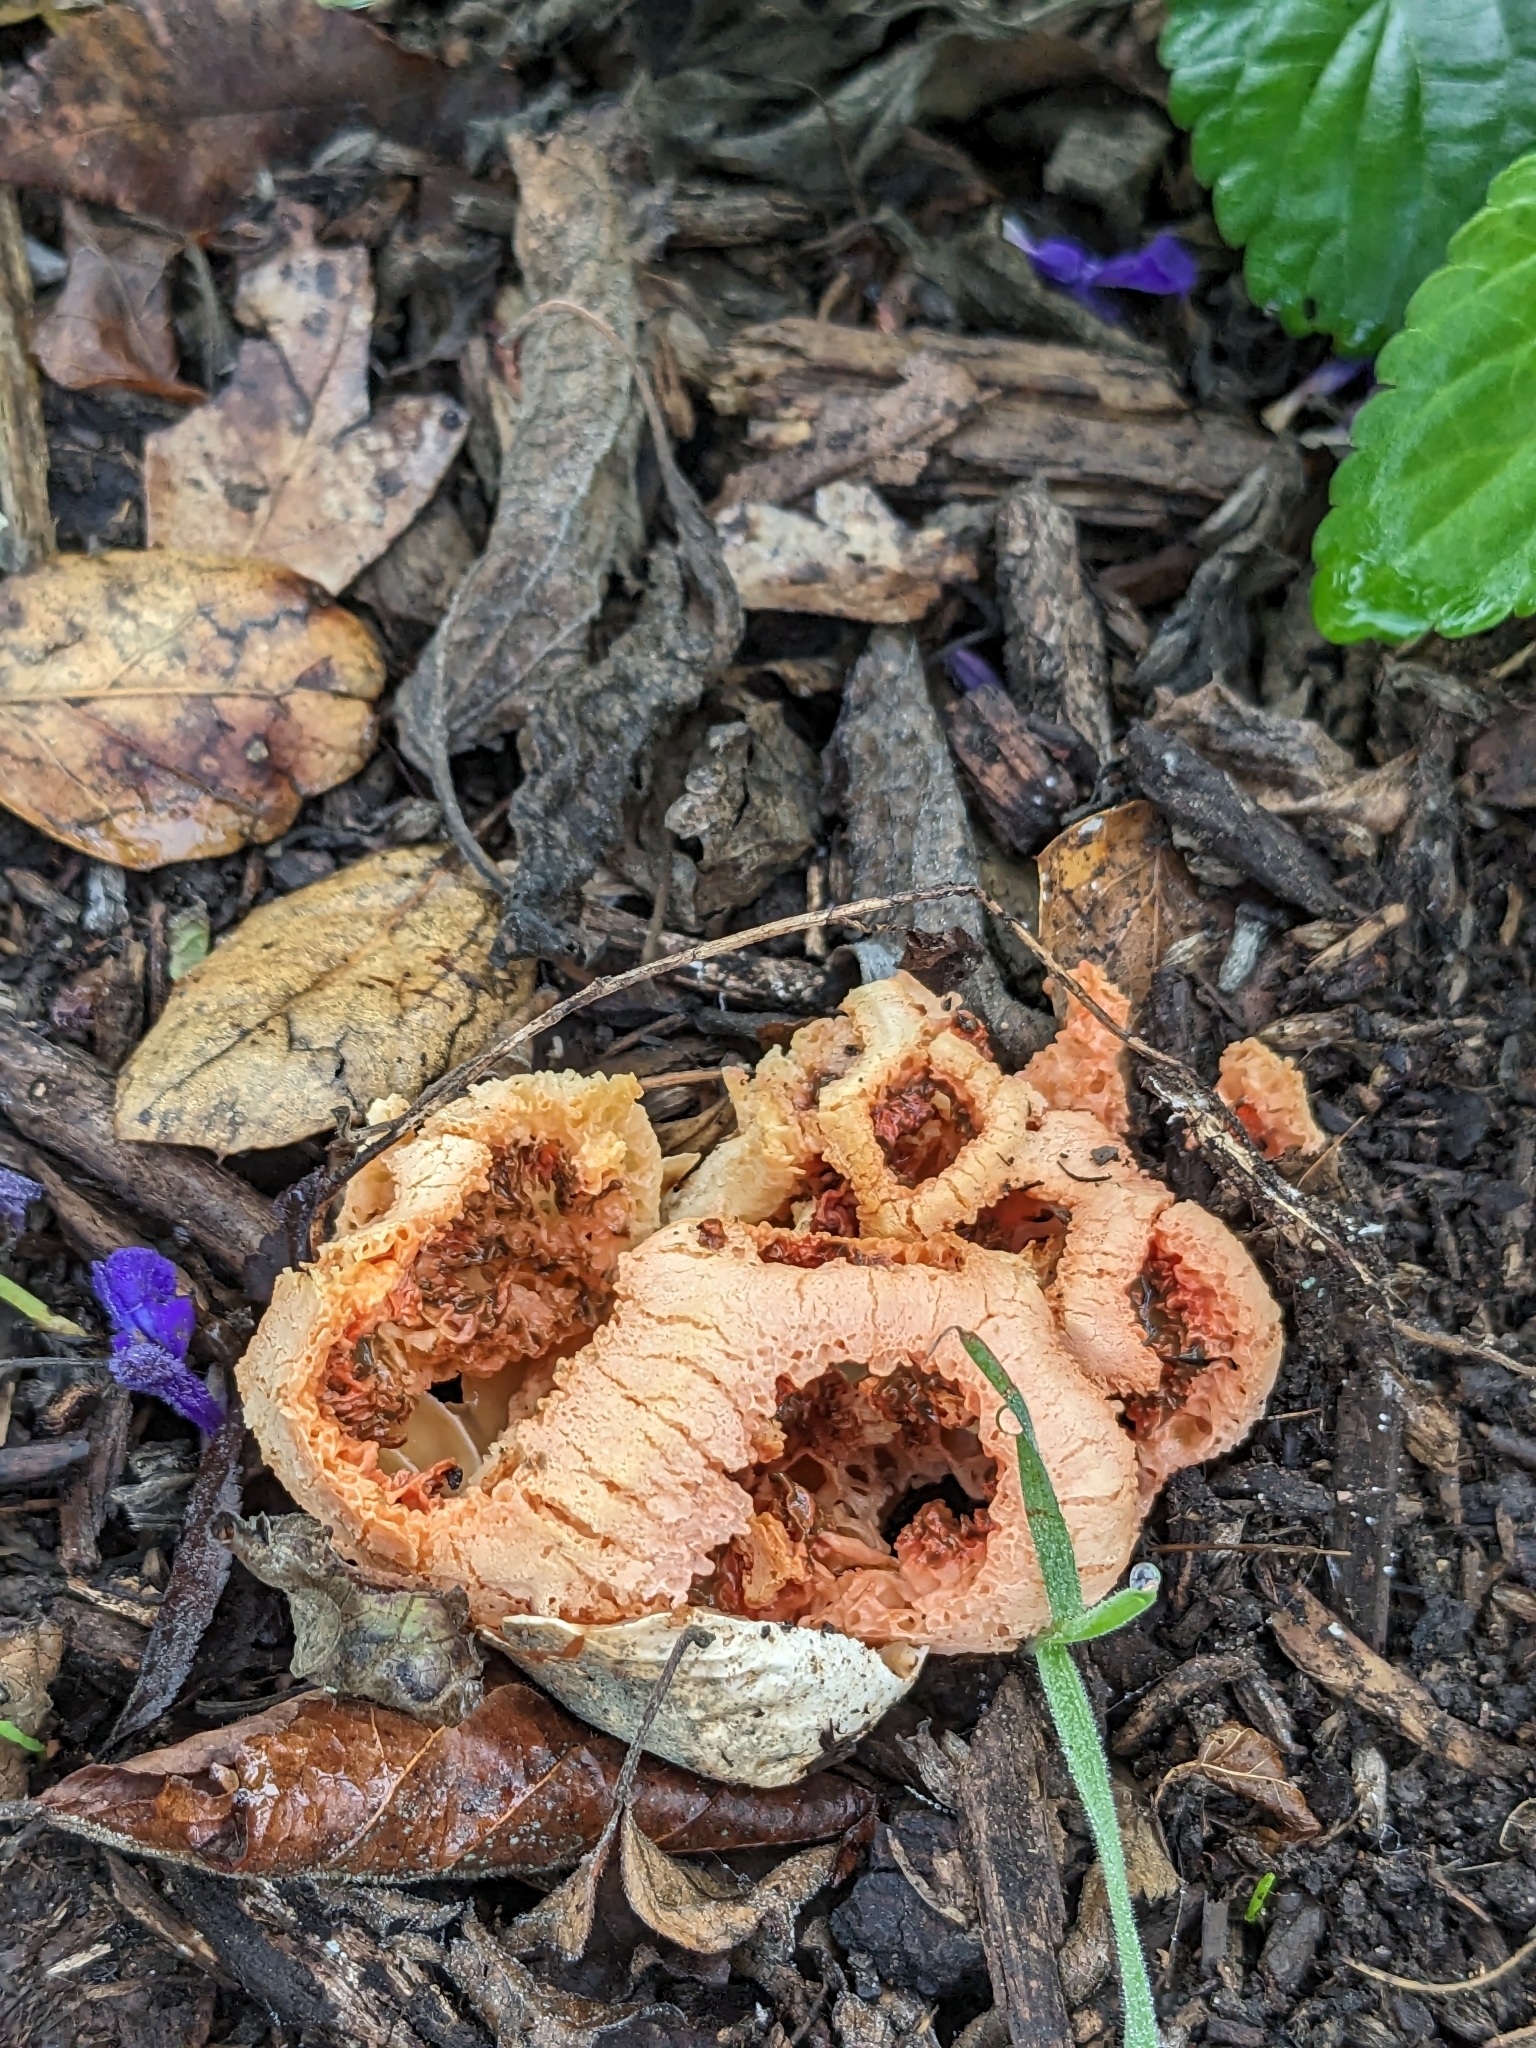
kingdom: Fungi
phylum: Basidiomycota
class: Agaricomycetes
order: Phallales
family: Phallaceae
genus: Clathrus
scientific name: Clathrus ruber
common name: Red cage
